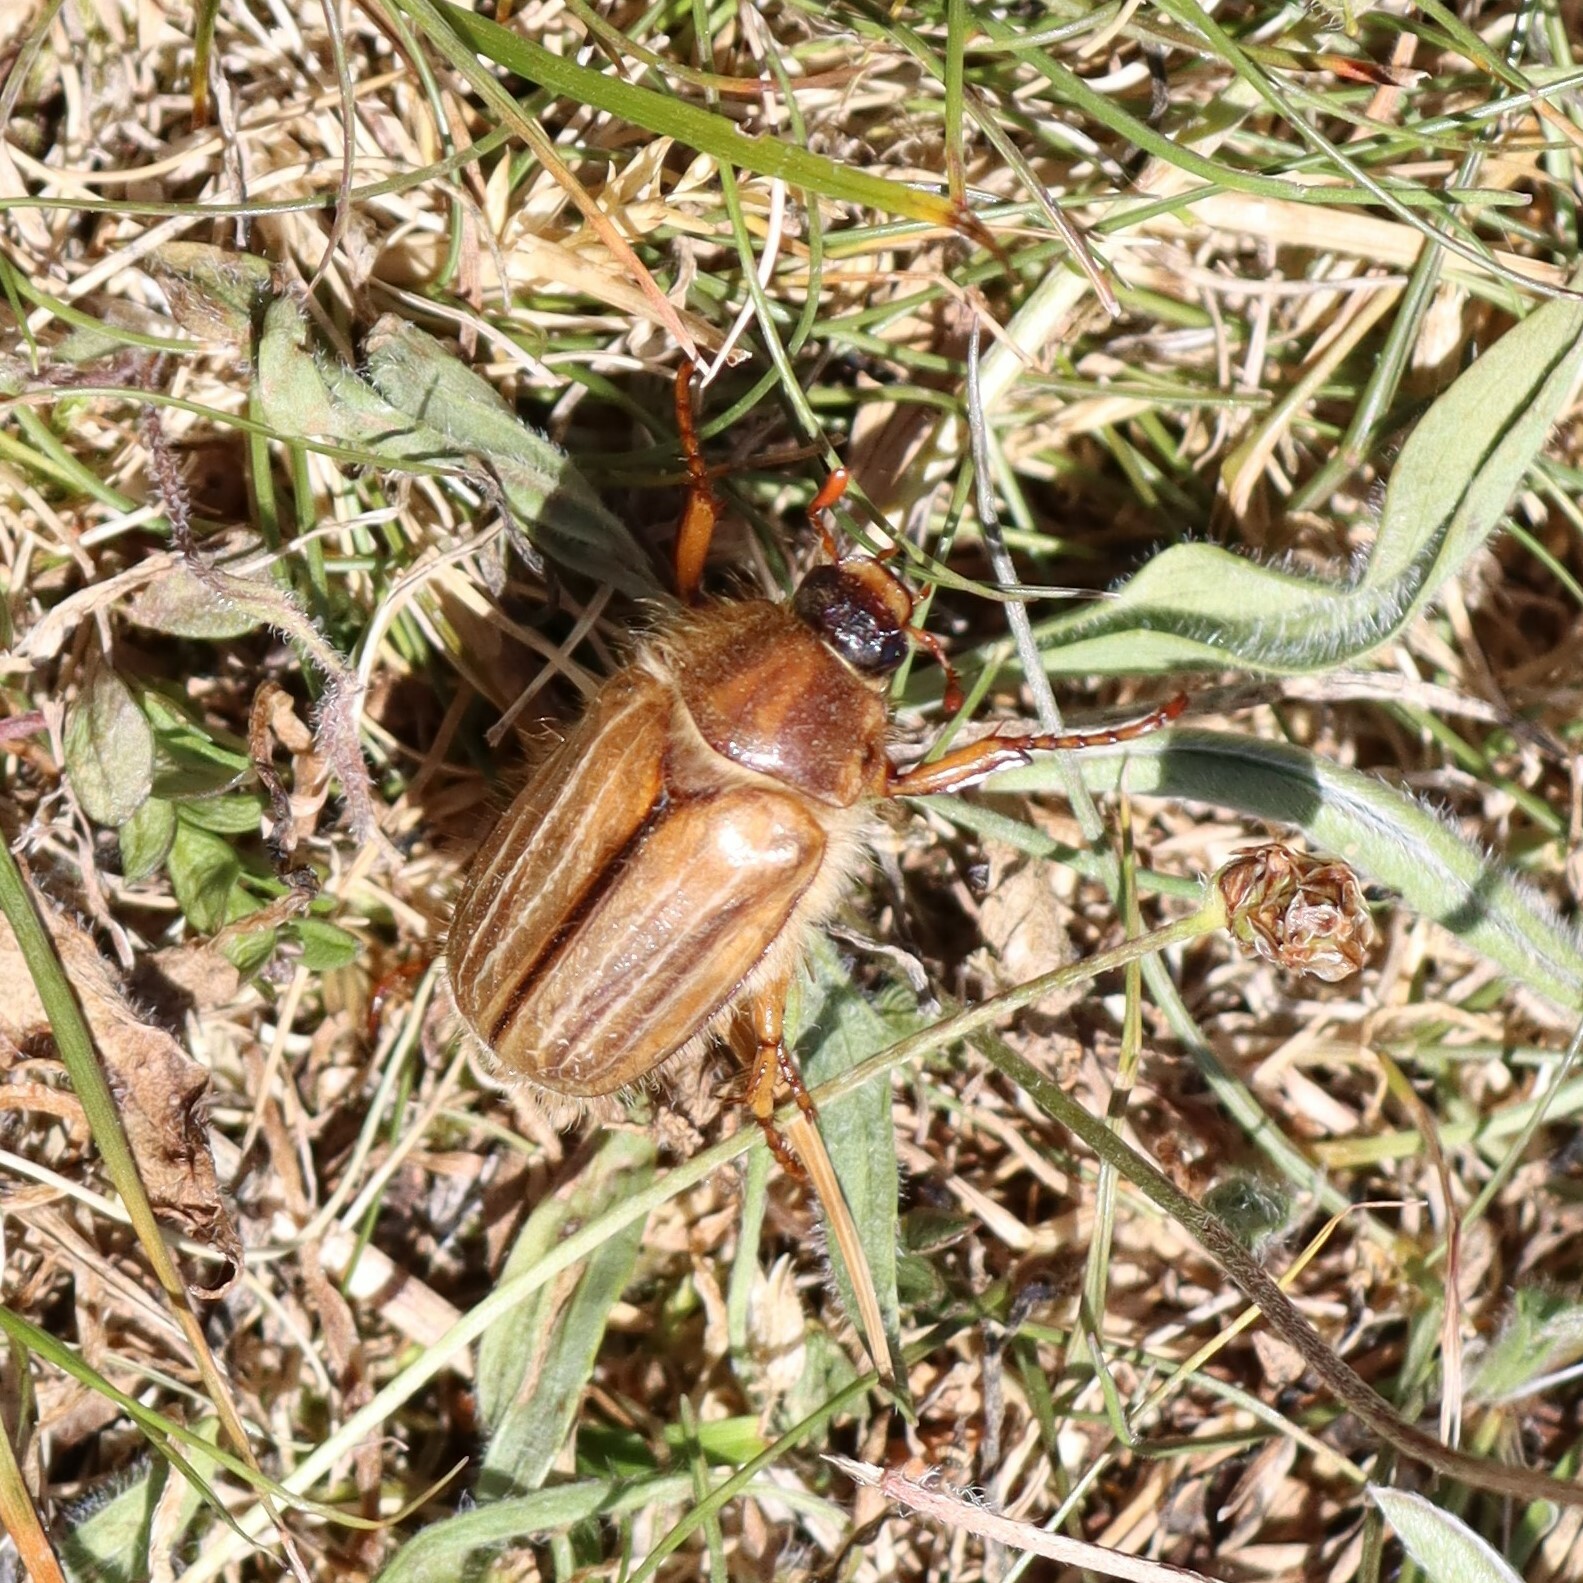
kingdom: Animalia
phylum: Arthropoda
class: Insecta
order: Coleoptera
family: Scarabaeidae
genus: Amphimallon
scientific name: Amphimallon solstitiale
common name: Summer chafer
